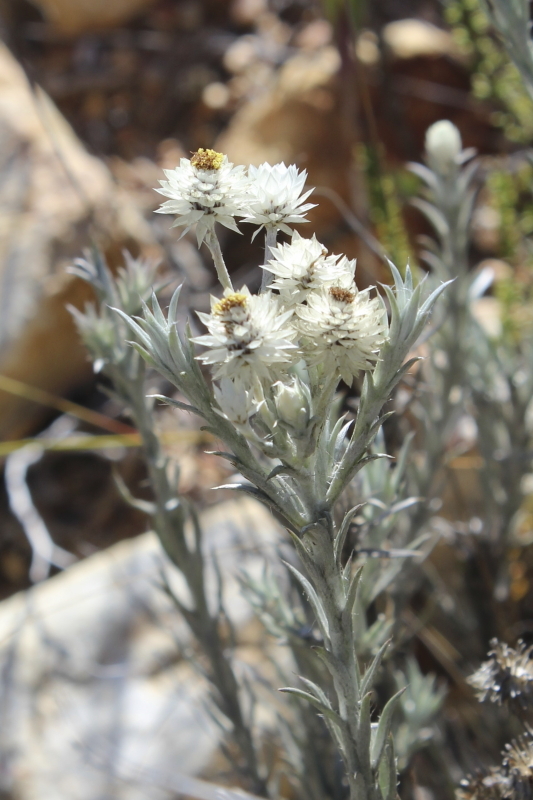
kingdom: Plantae
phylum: Tracheophyta
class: Magnoliopsida
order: Asterales
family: Asteraceae
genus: Achyranthemum
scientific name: Achyranthemum paniculatum
